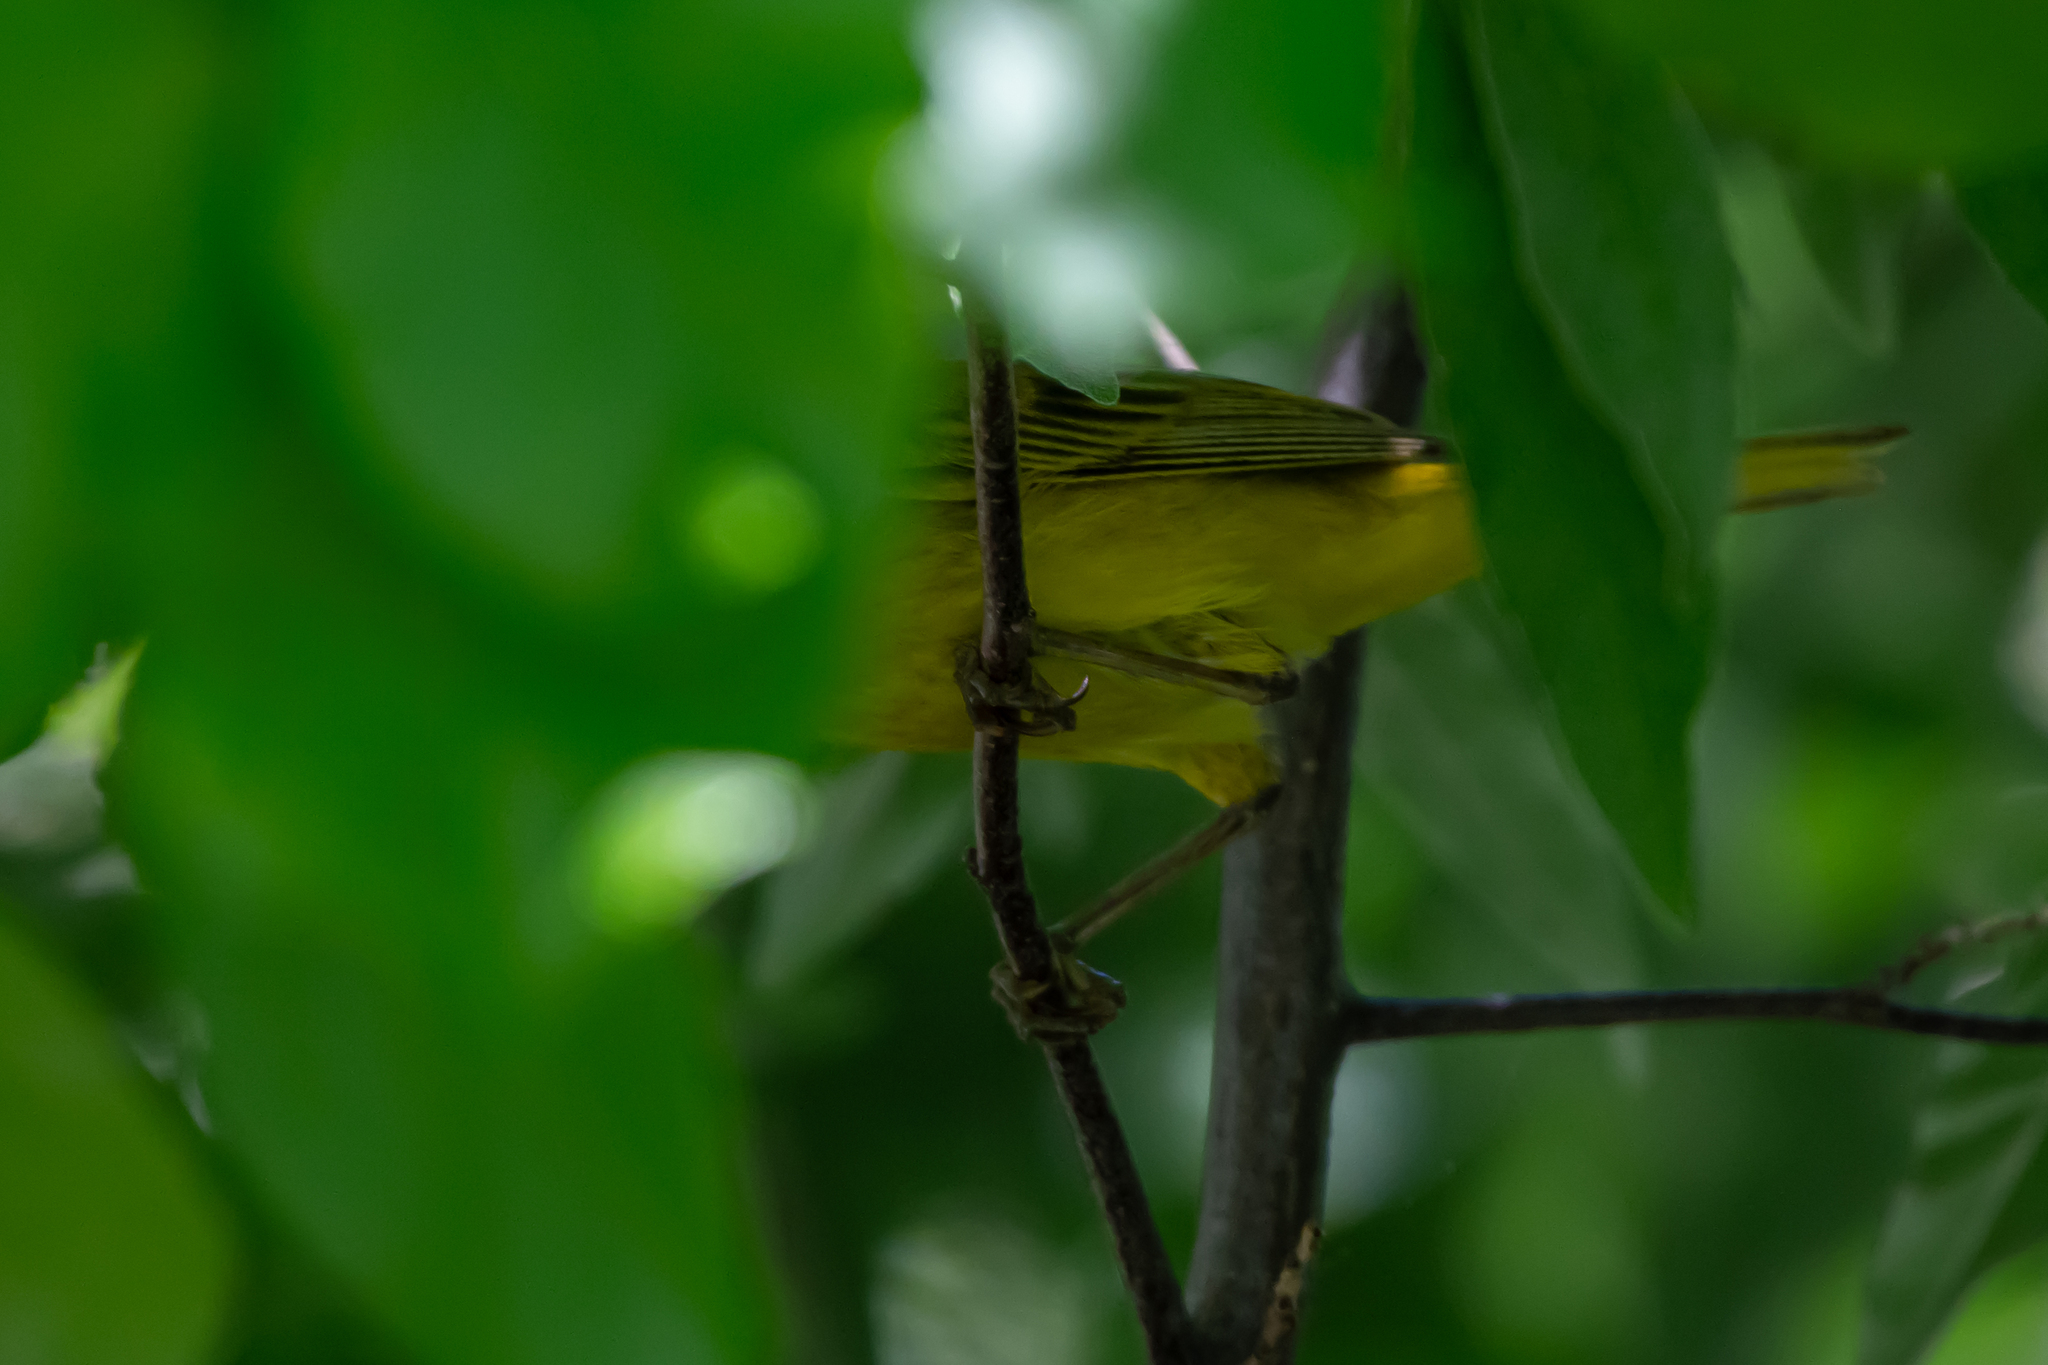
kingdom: Animalia
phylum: Chordata
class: Aves
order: Passeriformes
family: Parulidae
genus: Setophaga
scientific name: Setophaga petechia
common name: Yellow warbler
